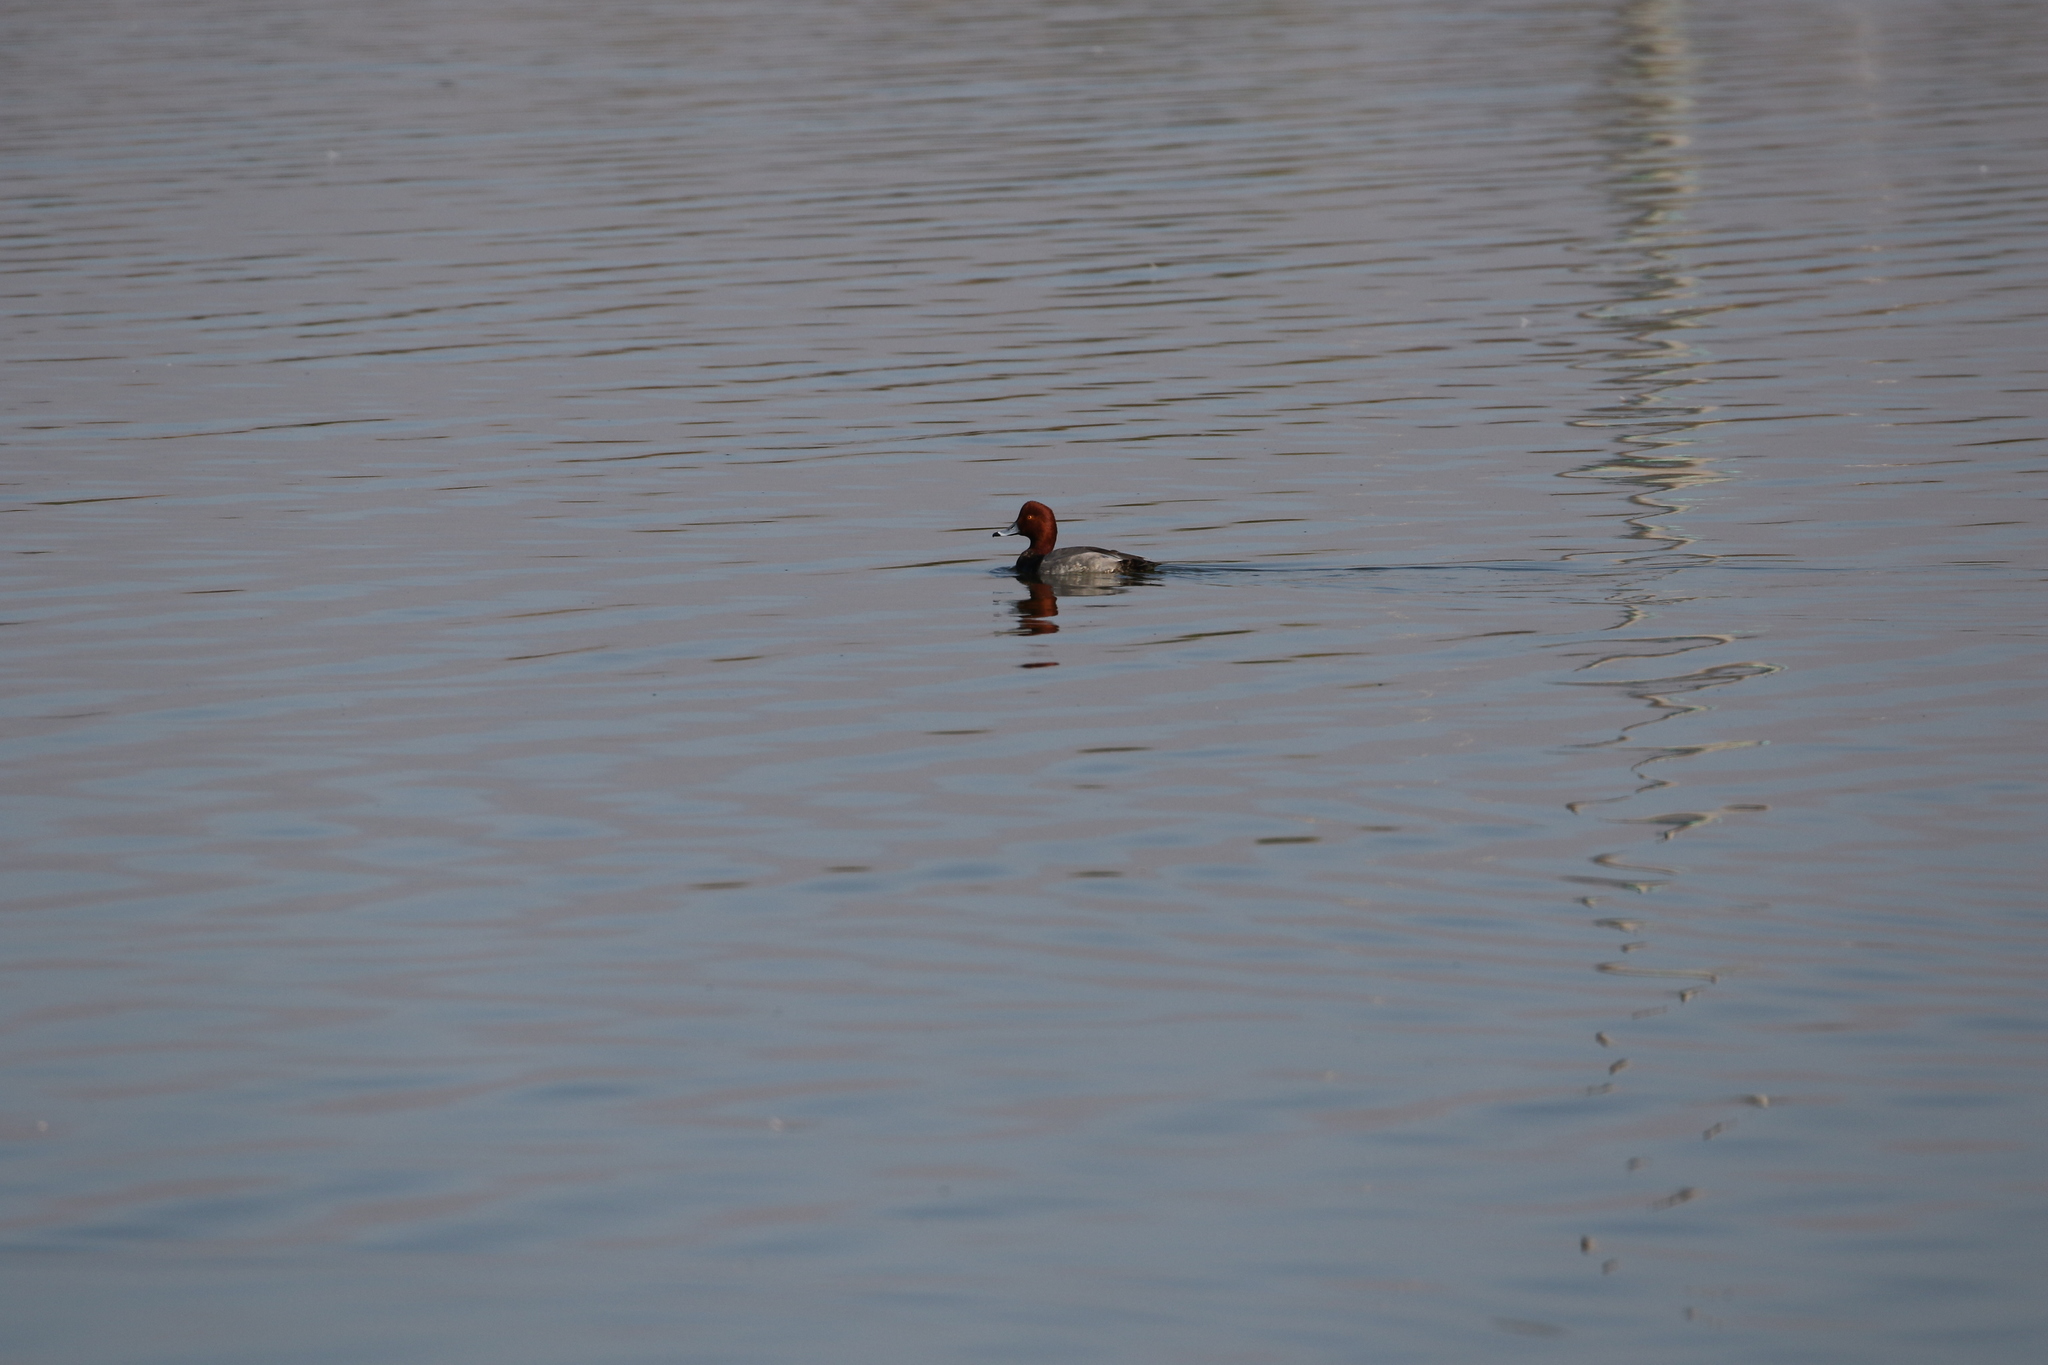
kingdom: Animalia
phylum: Chordata
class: Aves
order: Anseriformes
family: Anatidae
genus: Aythya
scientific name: Aythya americana
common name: Redhead
